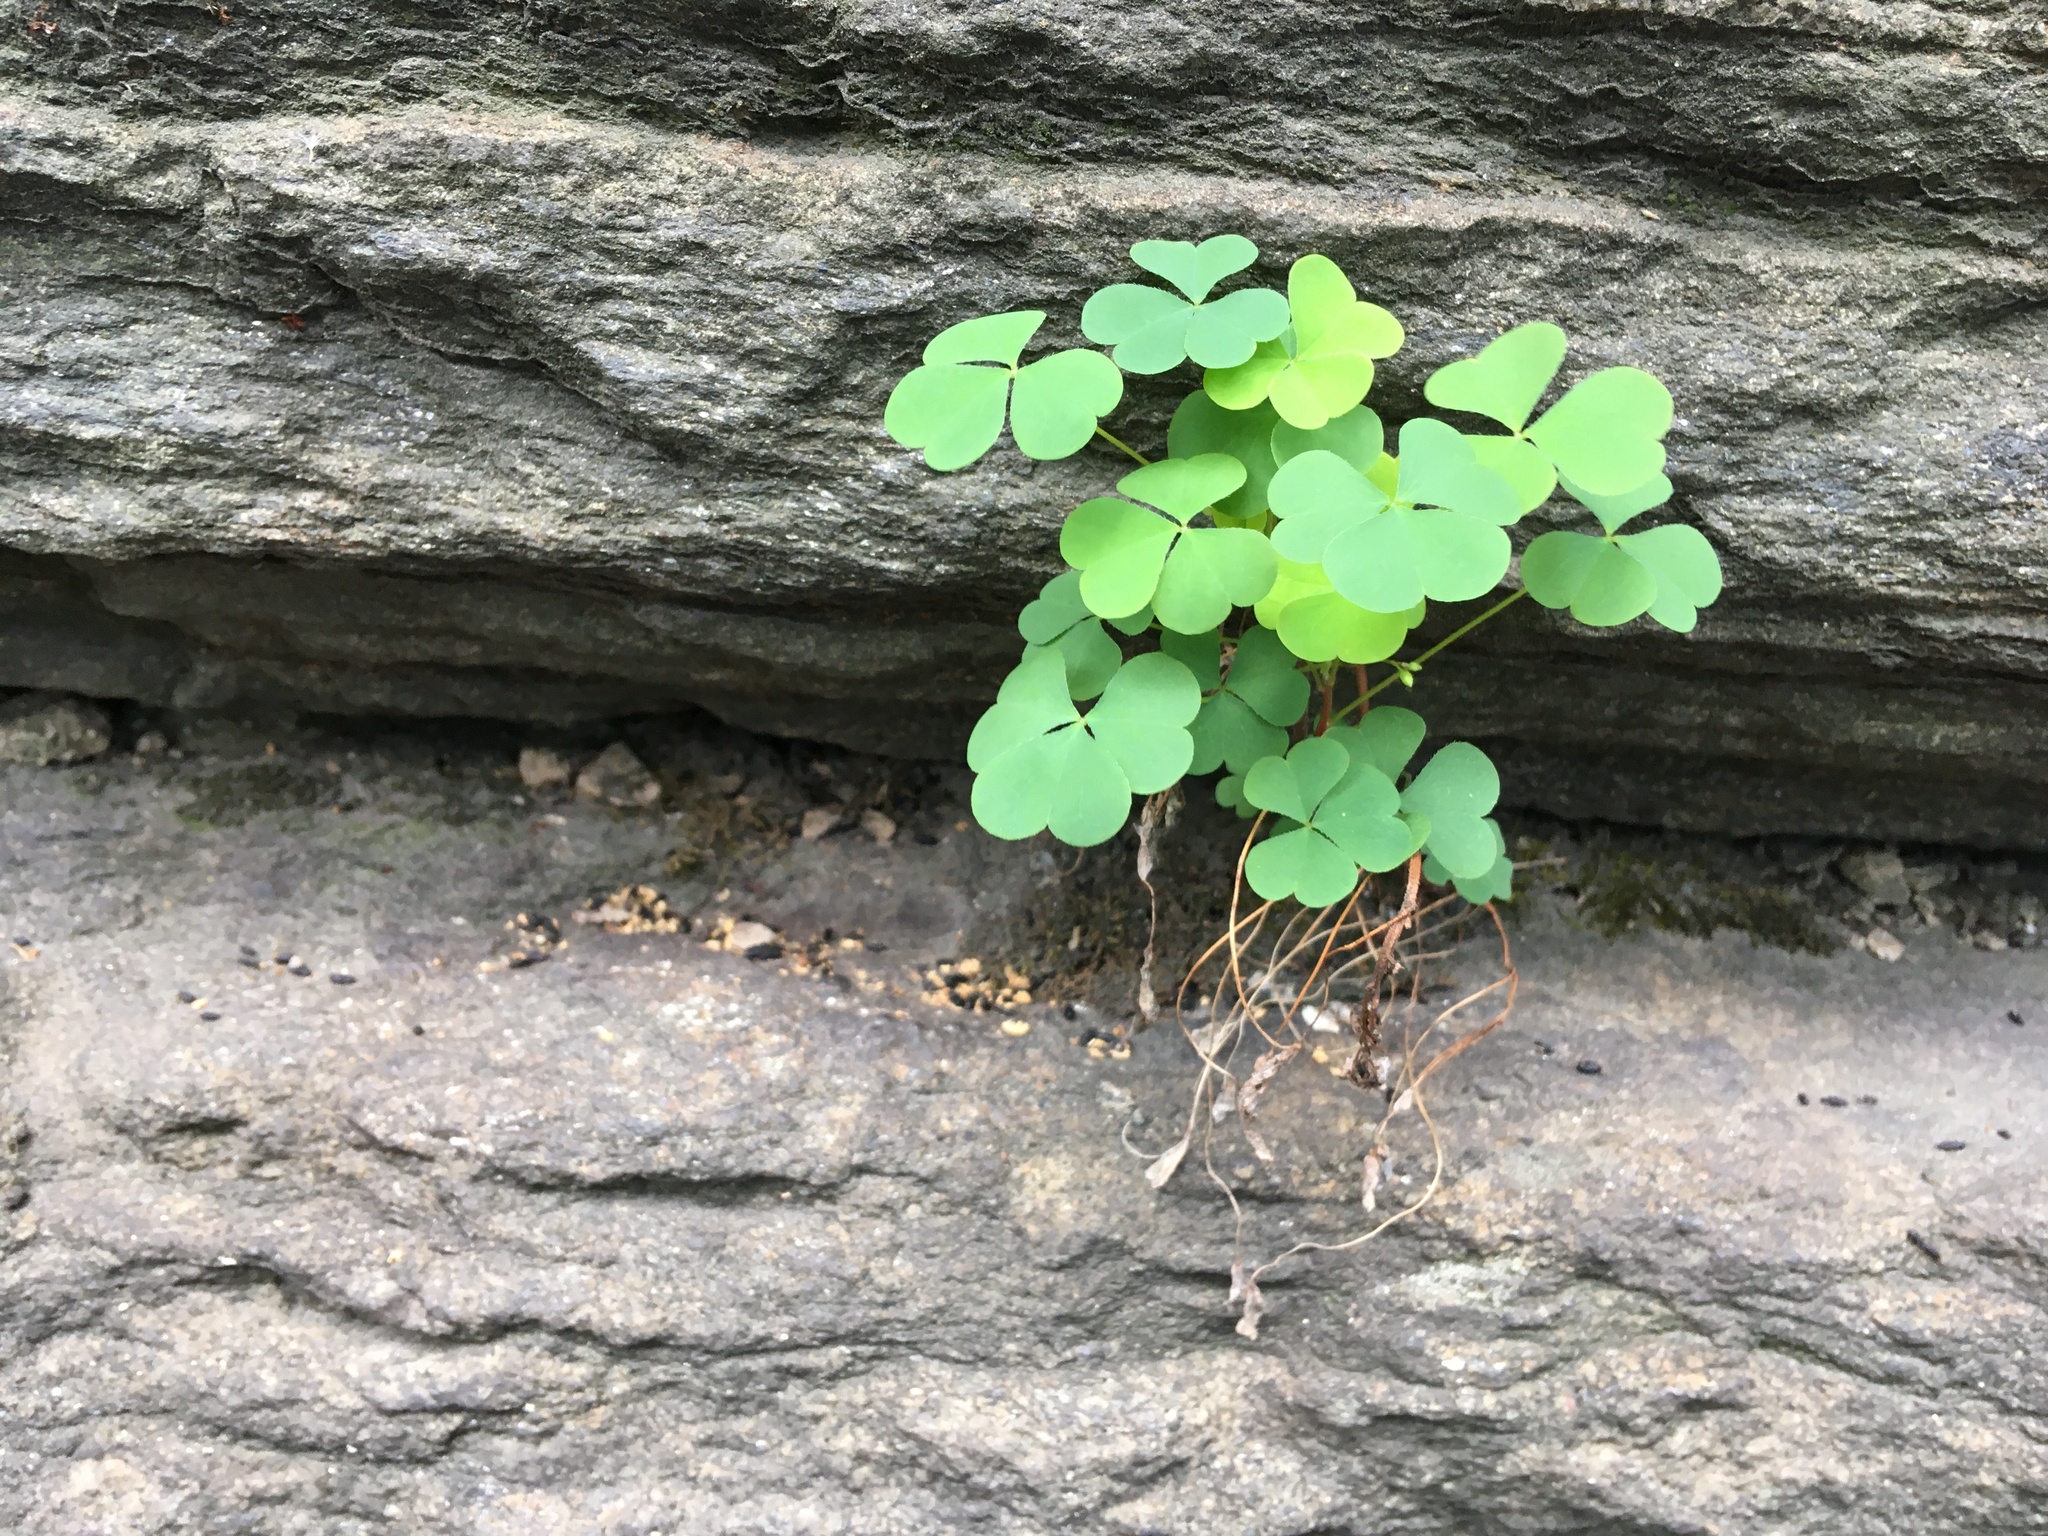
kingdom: Plantae
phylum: Tracheophyta
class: Magnoliopsida
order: Oxalidales
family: Oxalidaceae
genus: Oxalis
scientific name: Oxalis corniculata
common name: Procumbent yellow-sorrel
